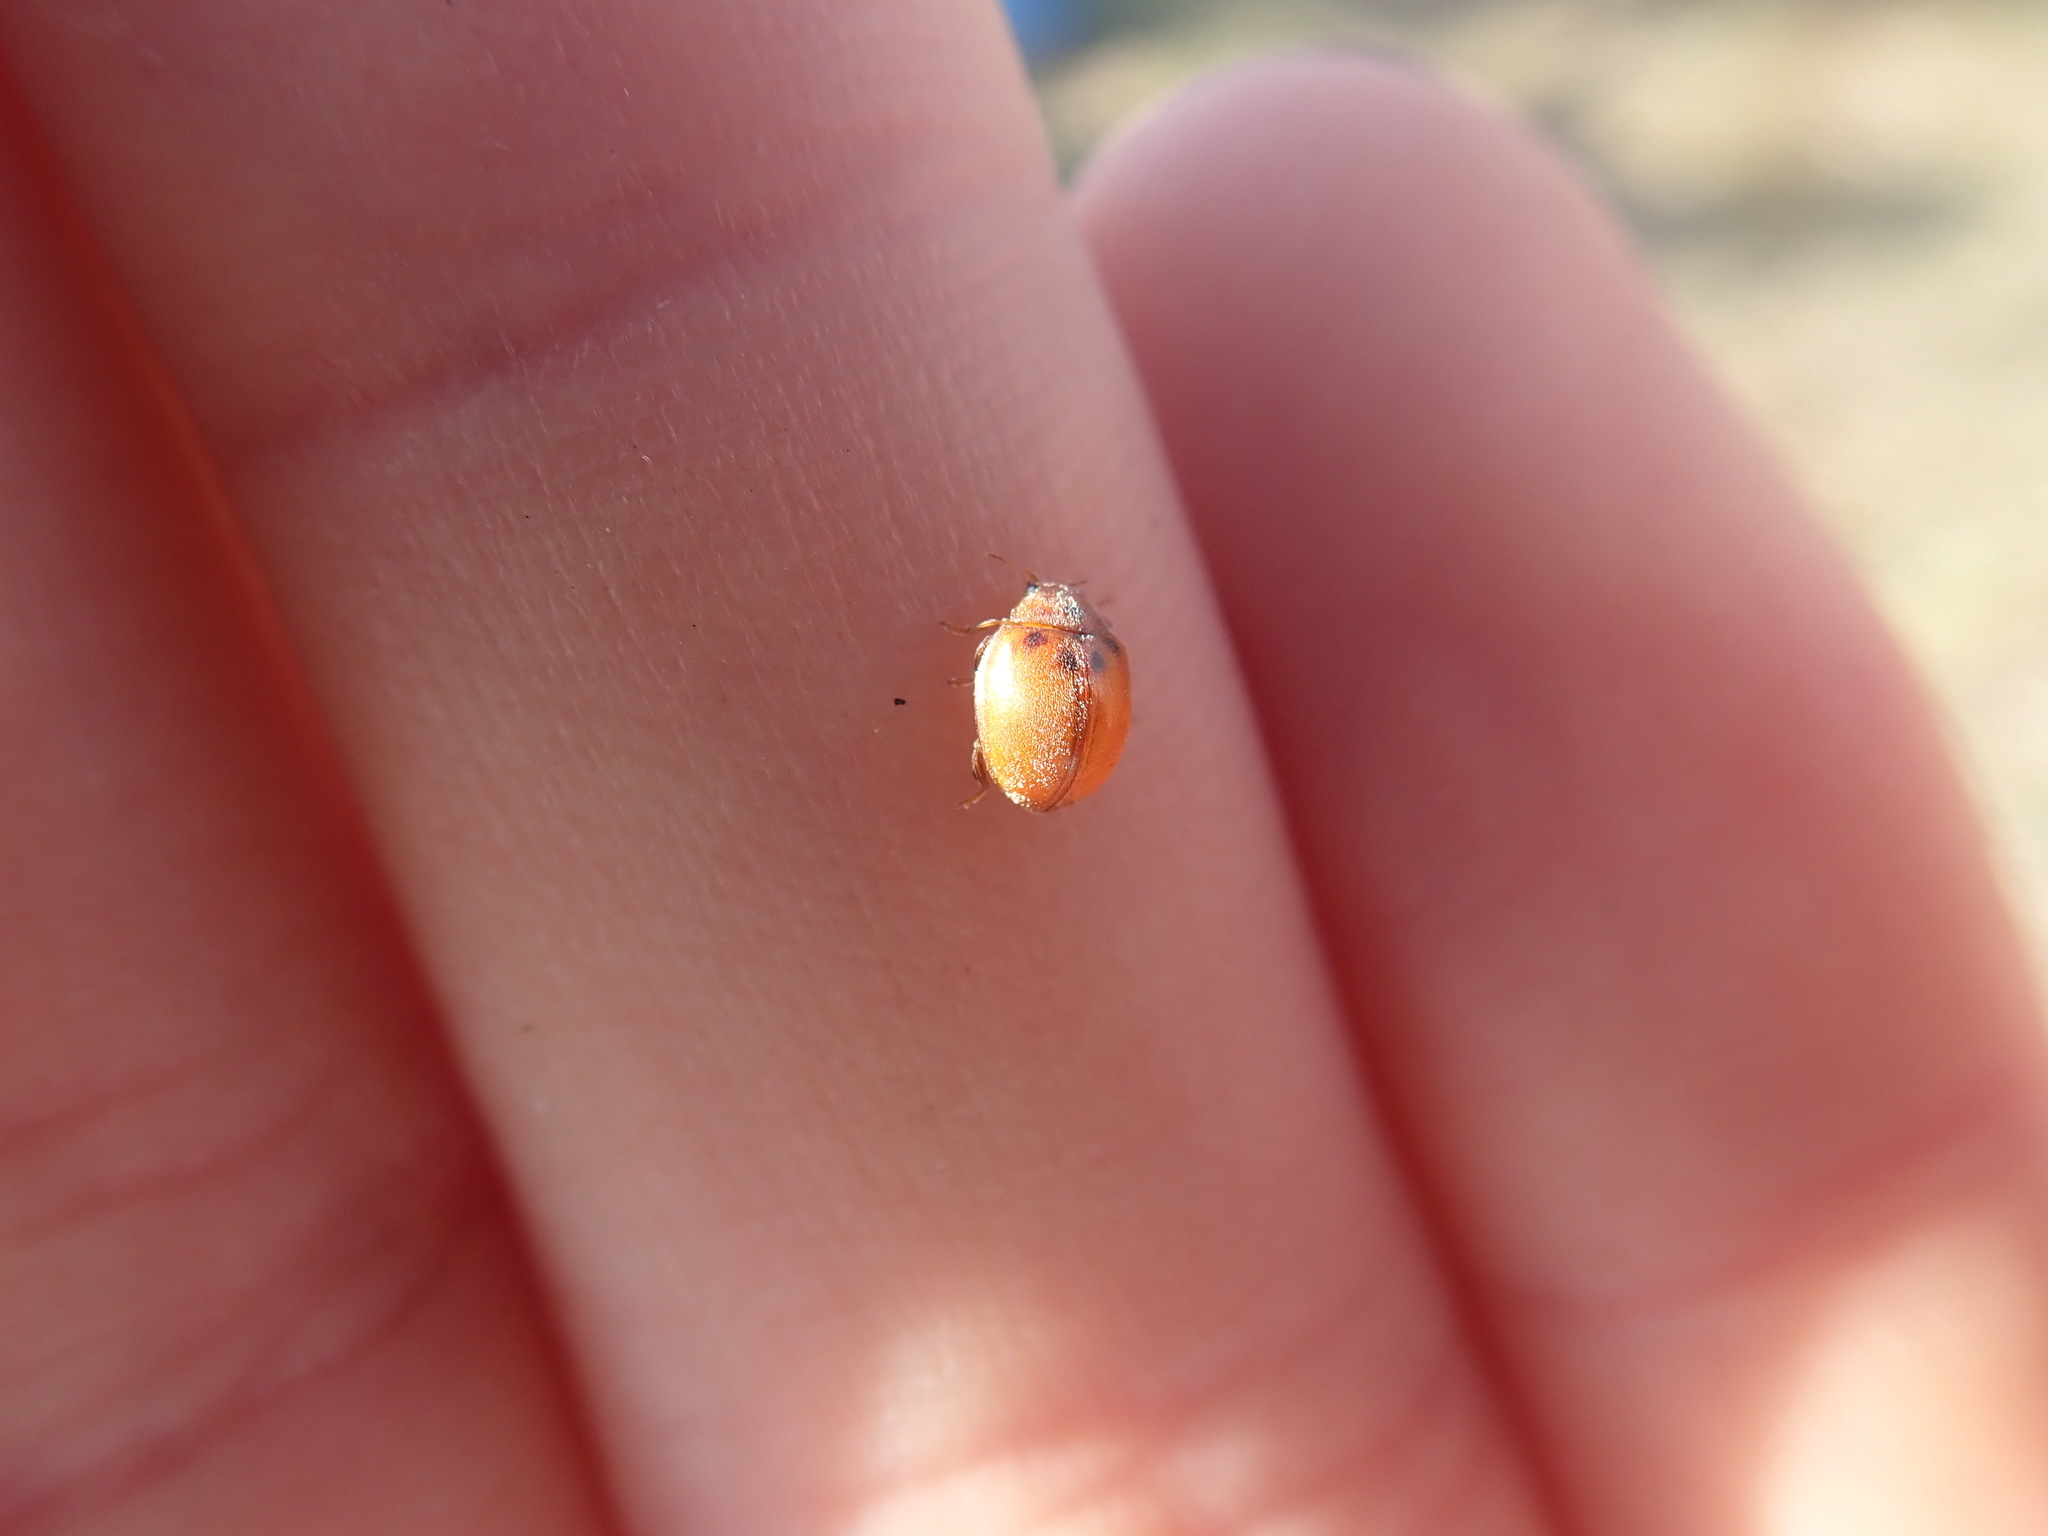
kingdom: Animalia
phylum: Arthropoda
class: Insecta
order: Coleoptera
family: Coccinellidae
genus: Subcoccinella
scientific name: Subcoccinella vigintiquatuorpunctata
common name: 24-spot ladybird
